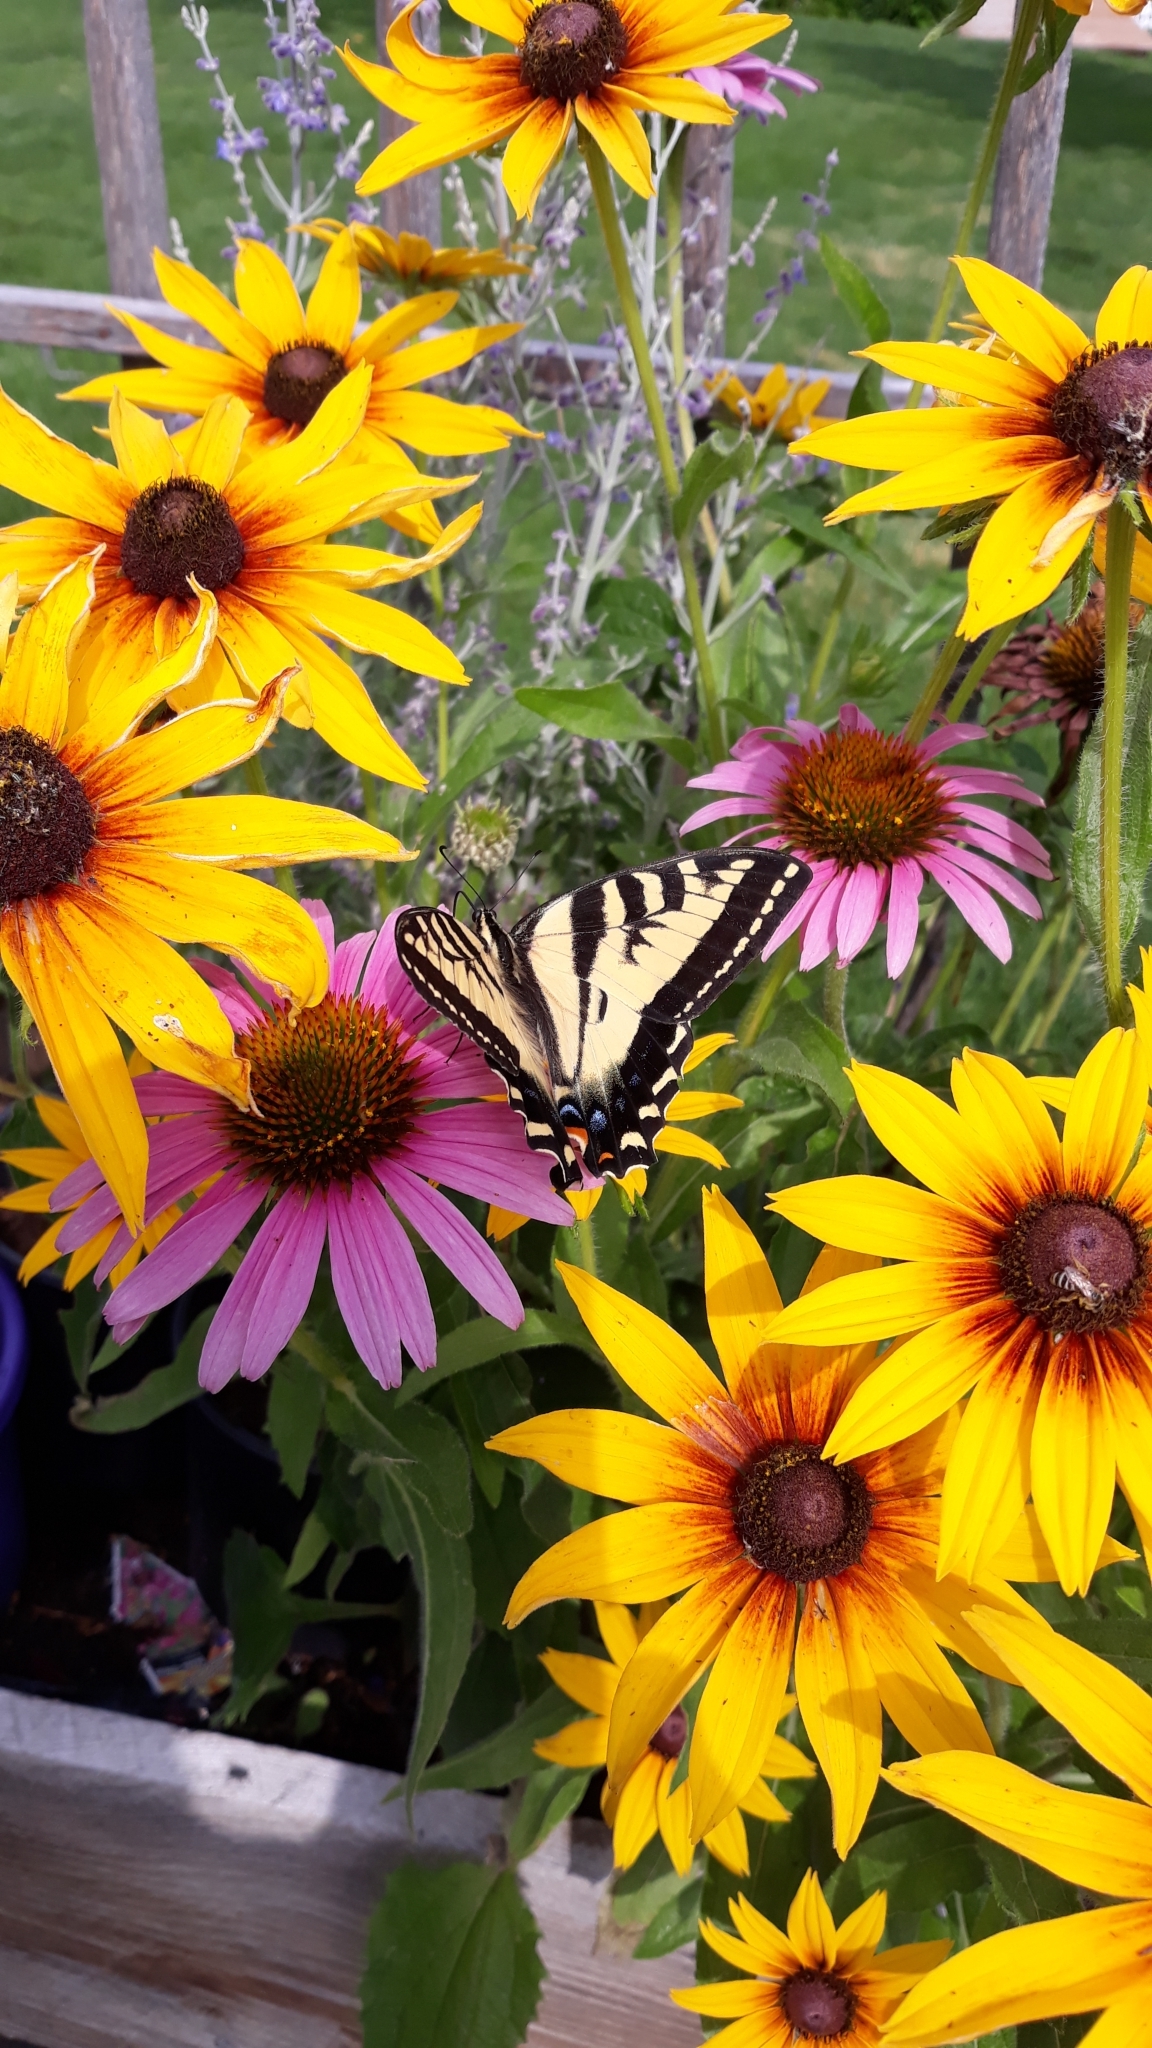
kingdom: Animalia
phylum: Arthropoda
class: Insecta
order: Lepidoptera
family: Papilionidae
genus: Papilio
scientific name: Papilio rutulus
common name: Western tiger swallowtail
